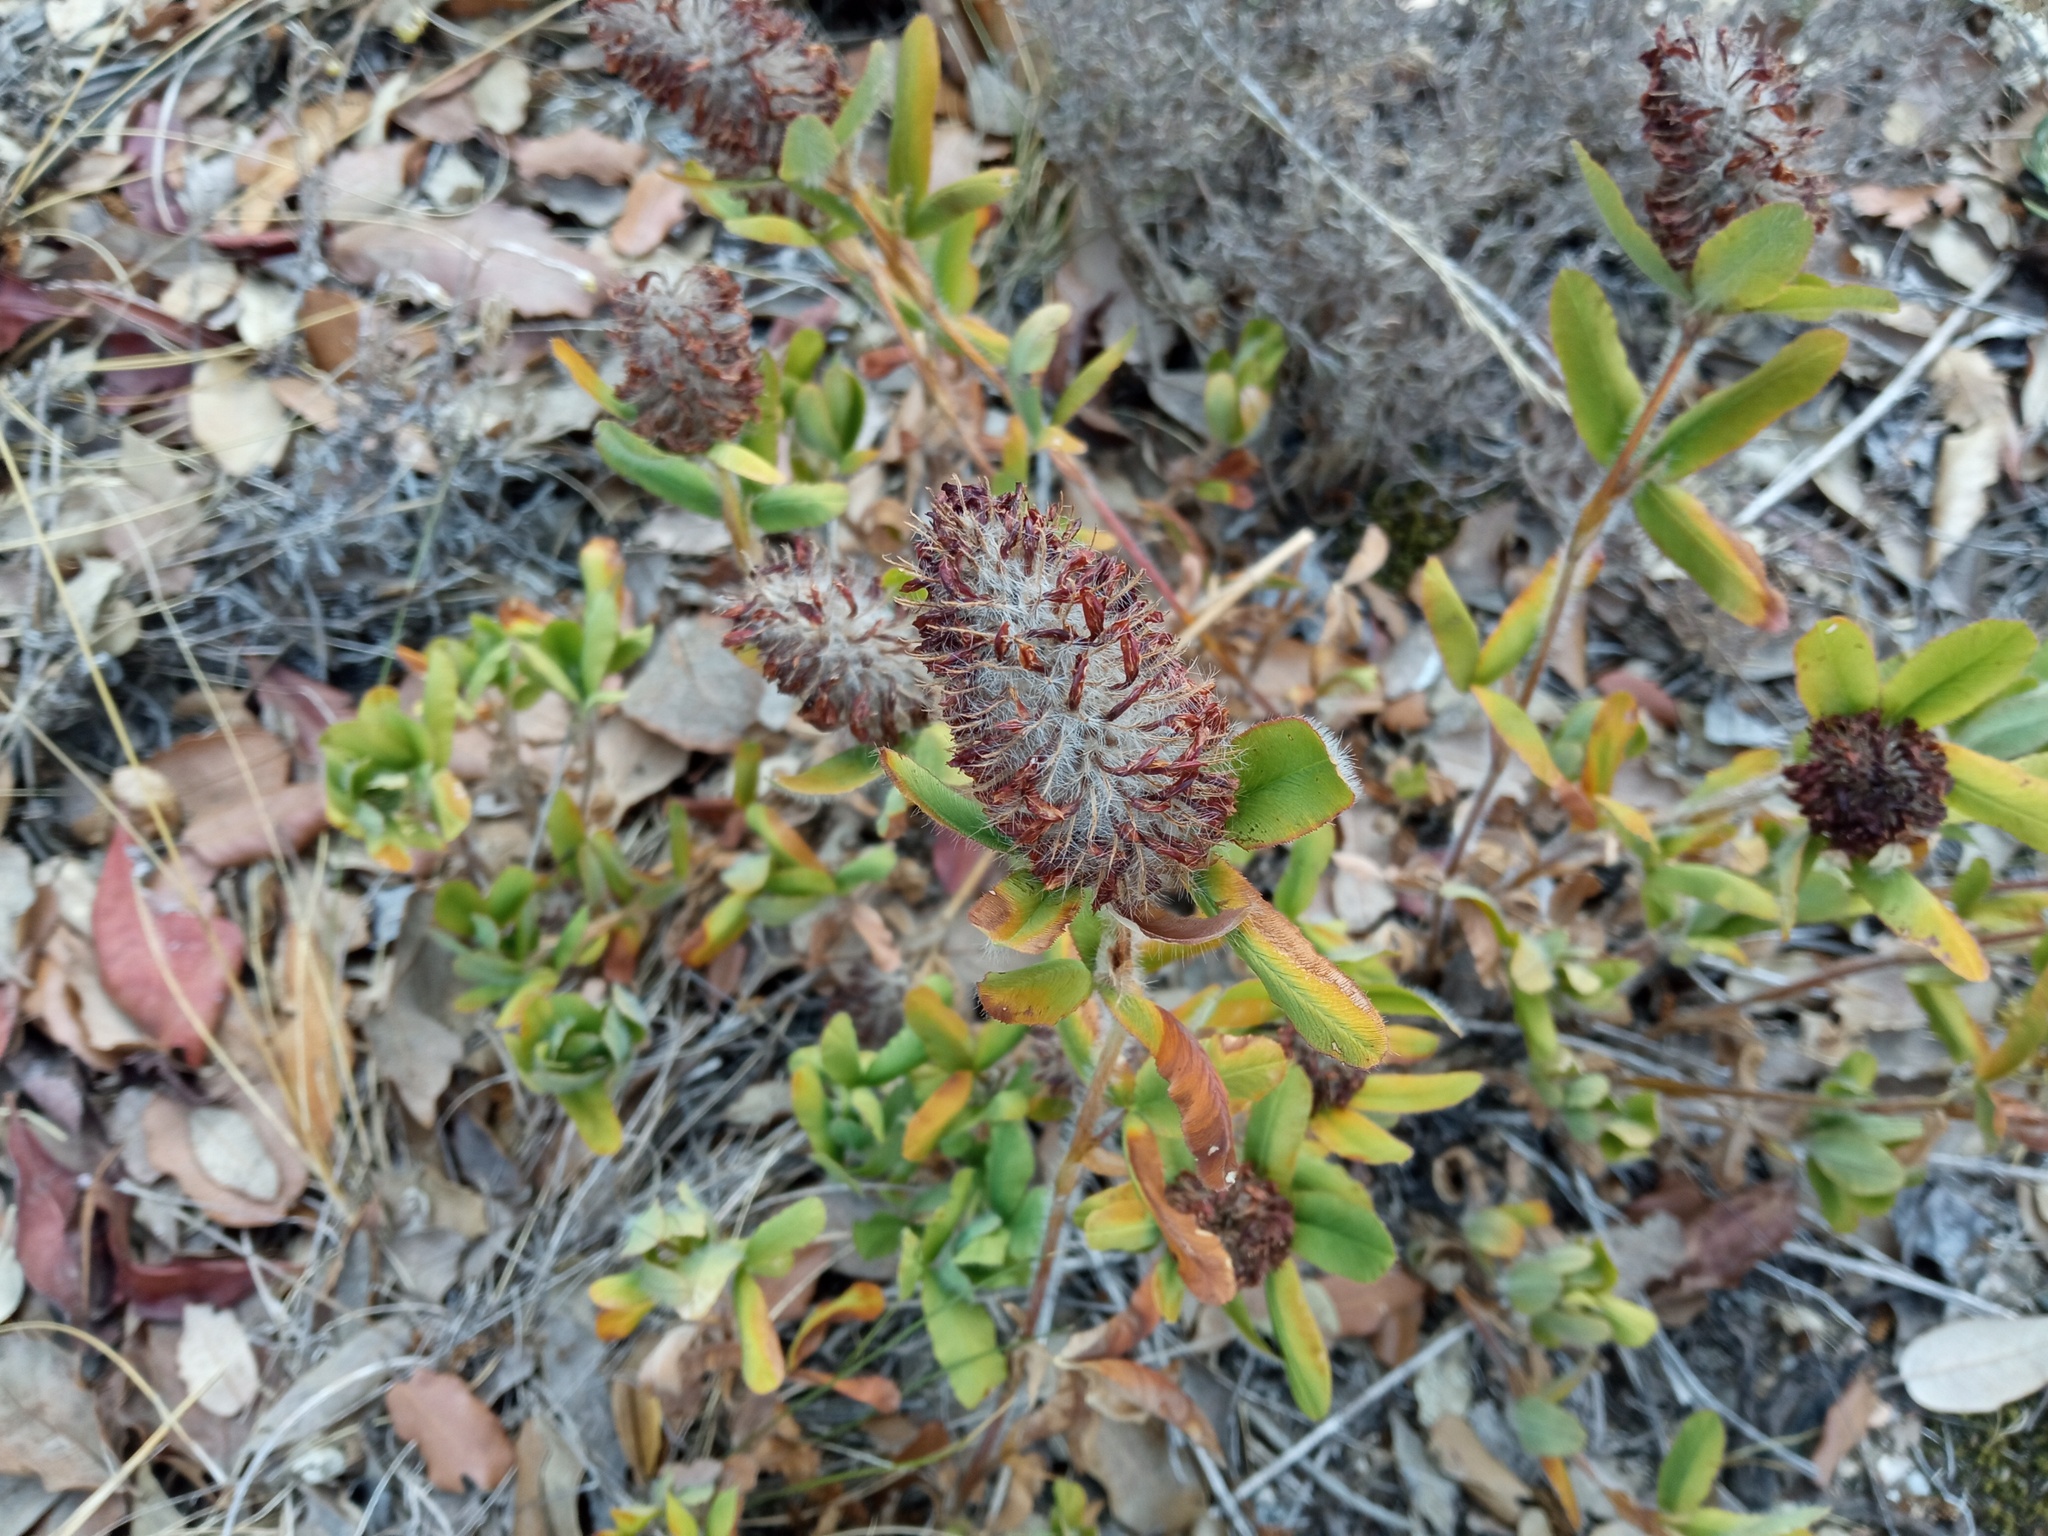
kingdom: Plantae
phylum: Tracheophyta
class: Magnoliopsida
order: Fabales
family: Fabaceae
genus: Trifolium
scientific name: Trifolium rubens
